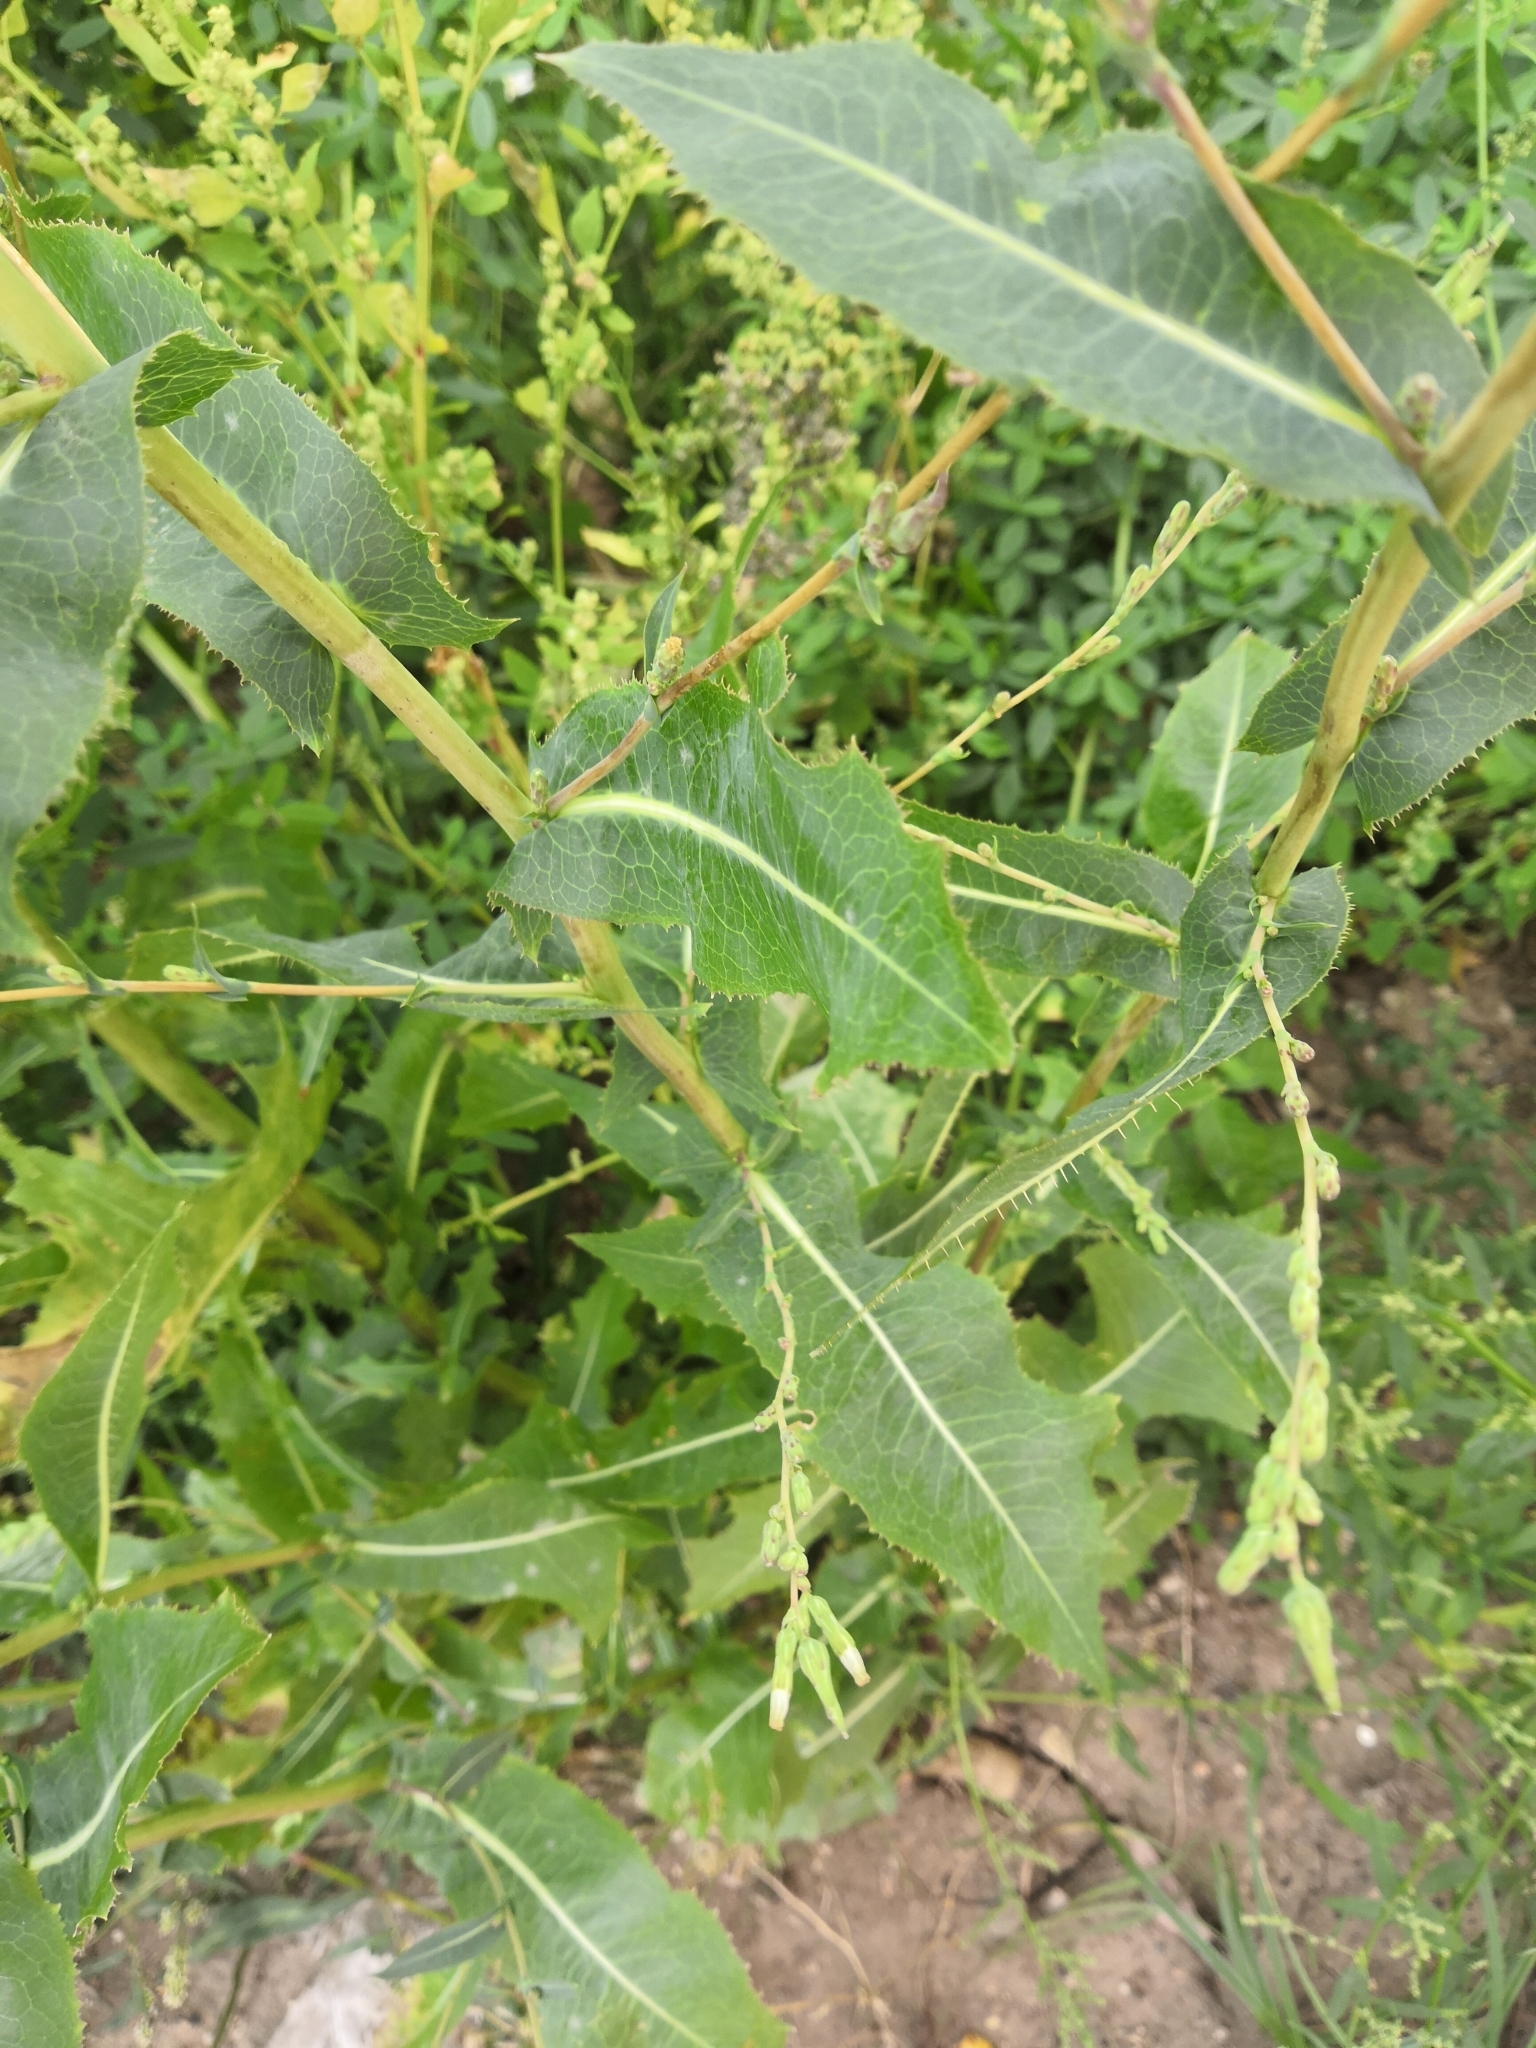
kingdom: Plantae
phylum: Tracheophyta
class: Magnoliopsida
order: Asterales
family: Asteraceae
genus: Lactuca
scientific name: Lactuca serriola
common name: Prickly lettuce
